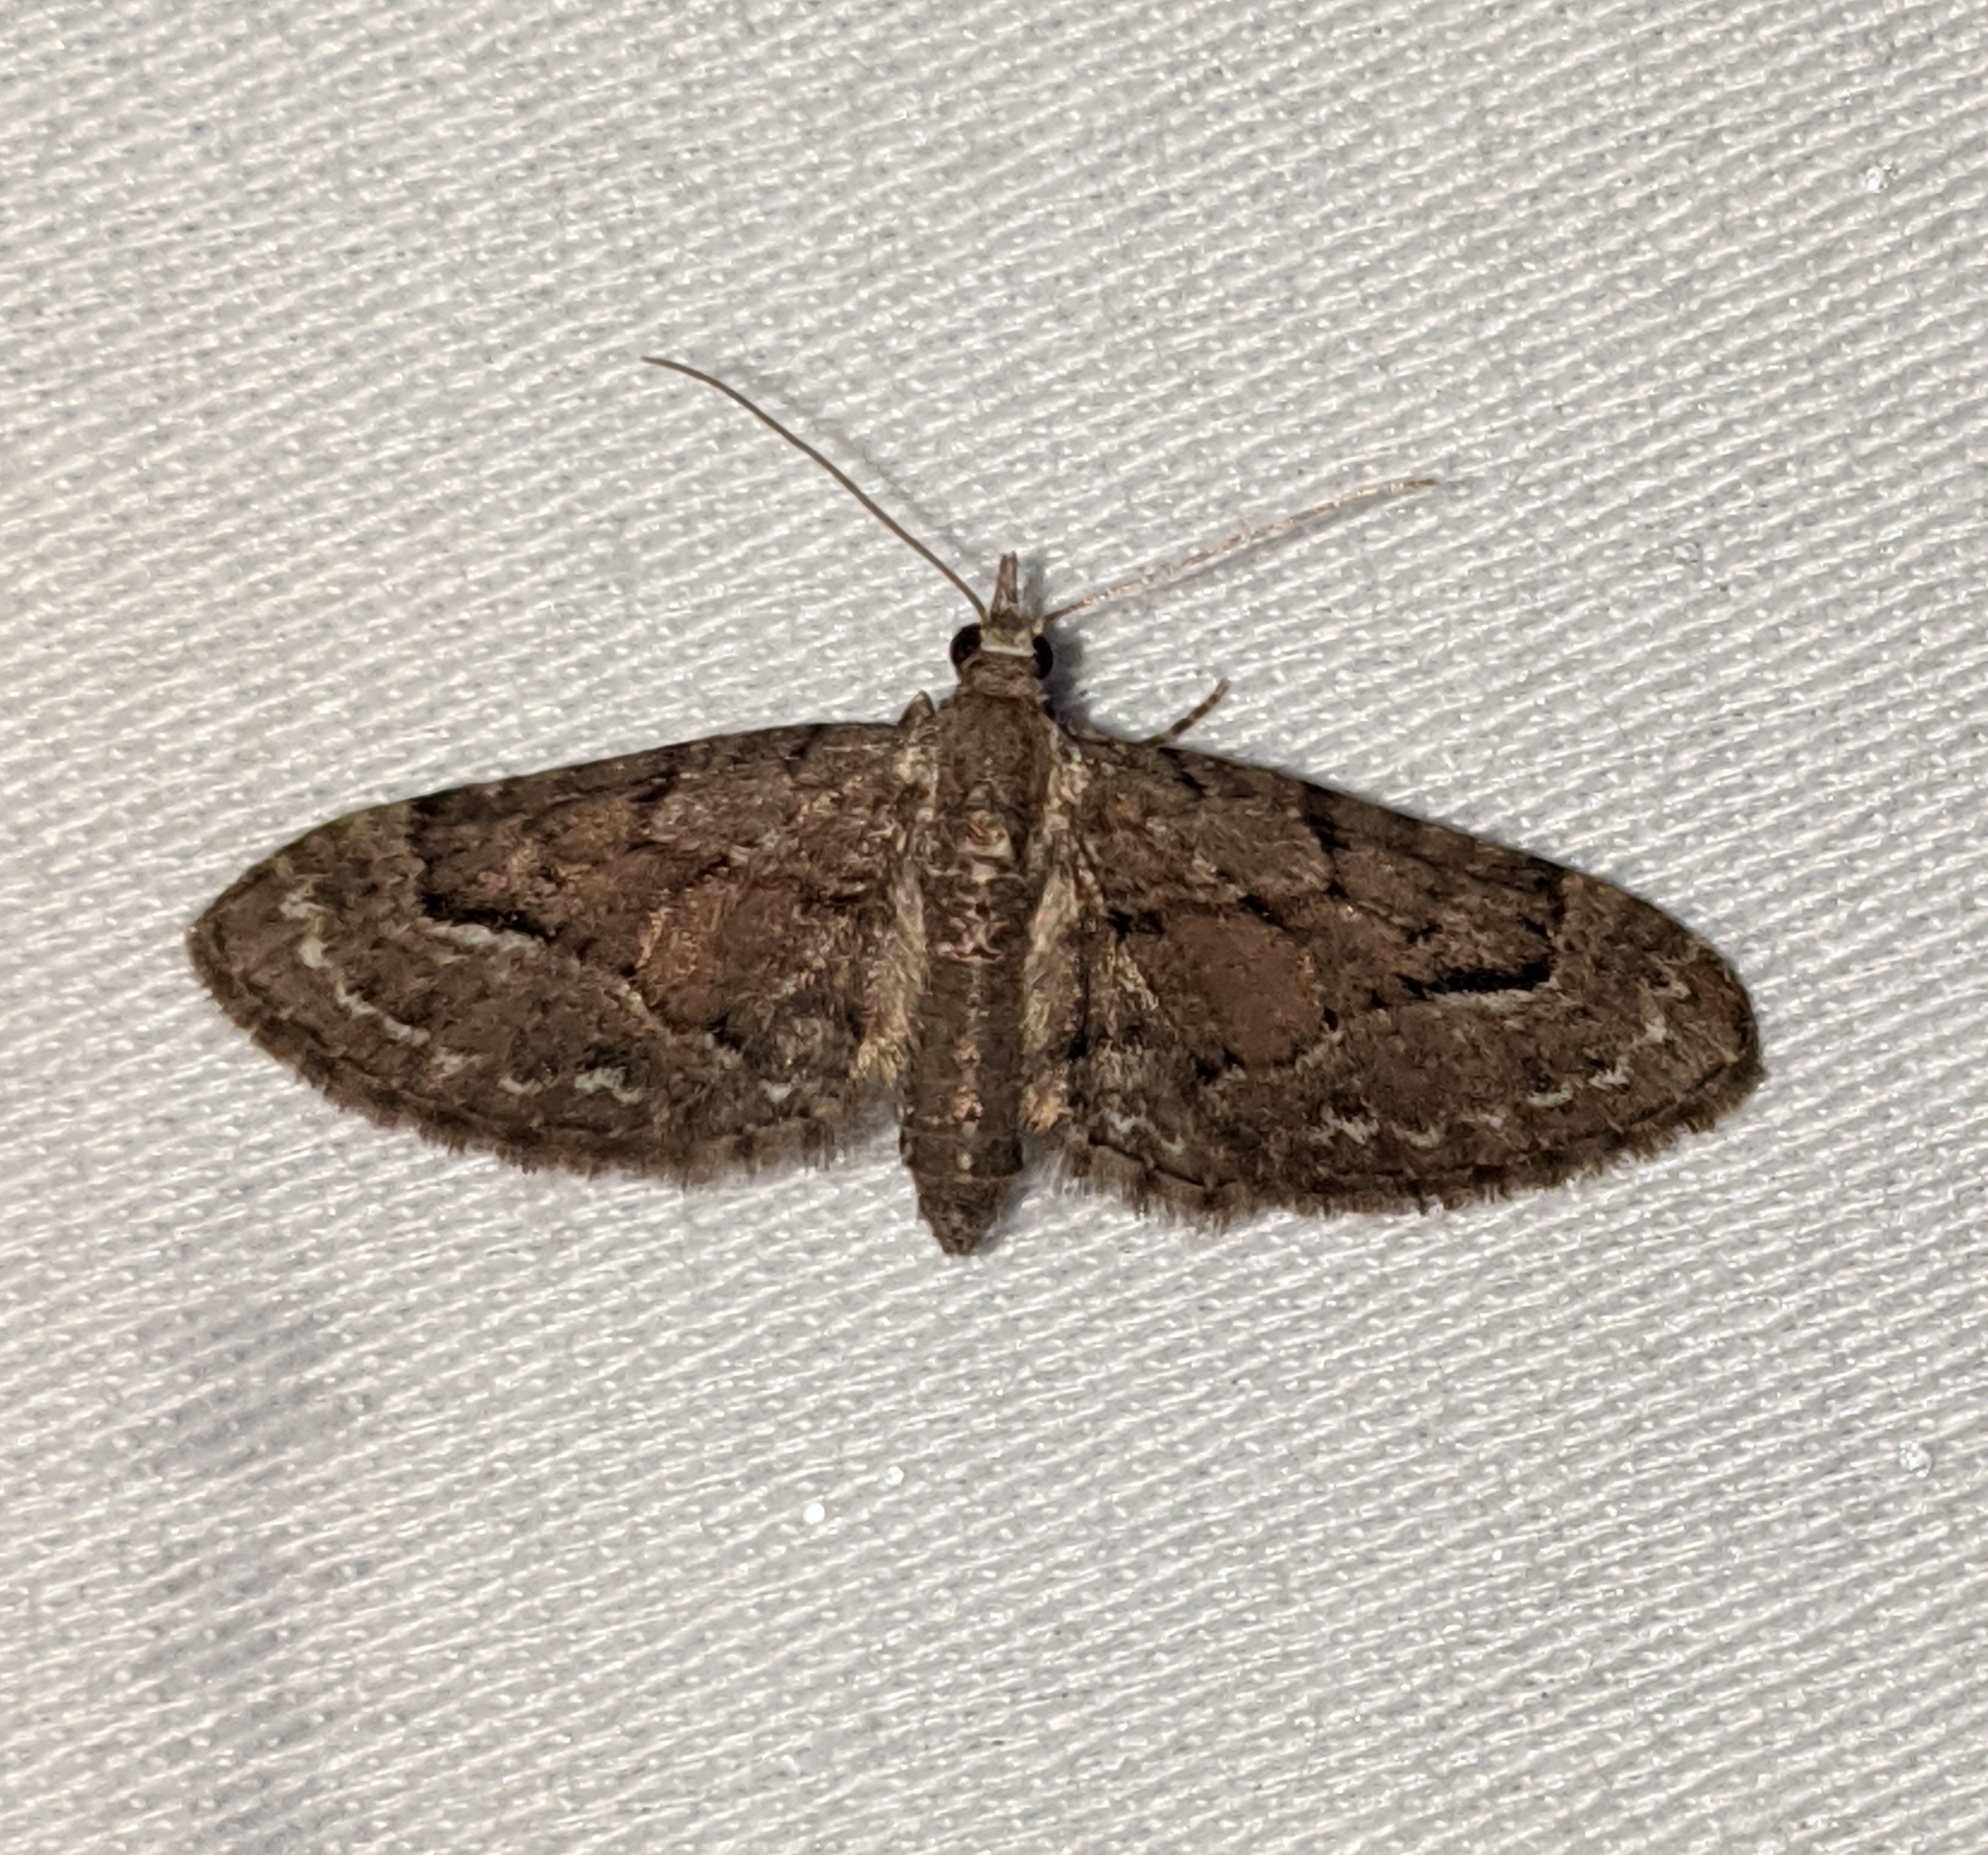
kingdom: Animalia
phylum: Arthropoda
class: Insecta
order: Lepidoptera
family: Geometridae
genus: Eupithecia
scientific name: Eupithecia unicolor
